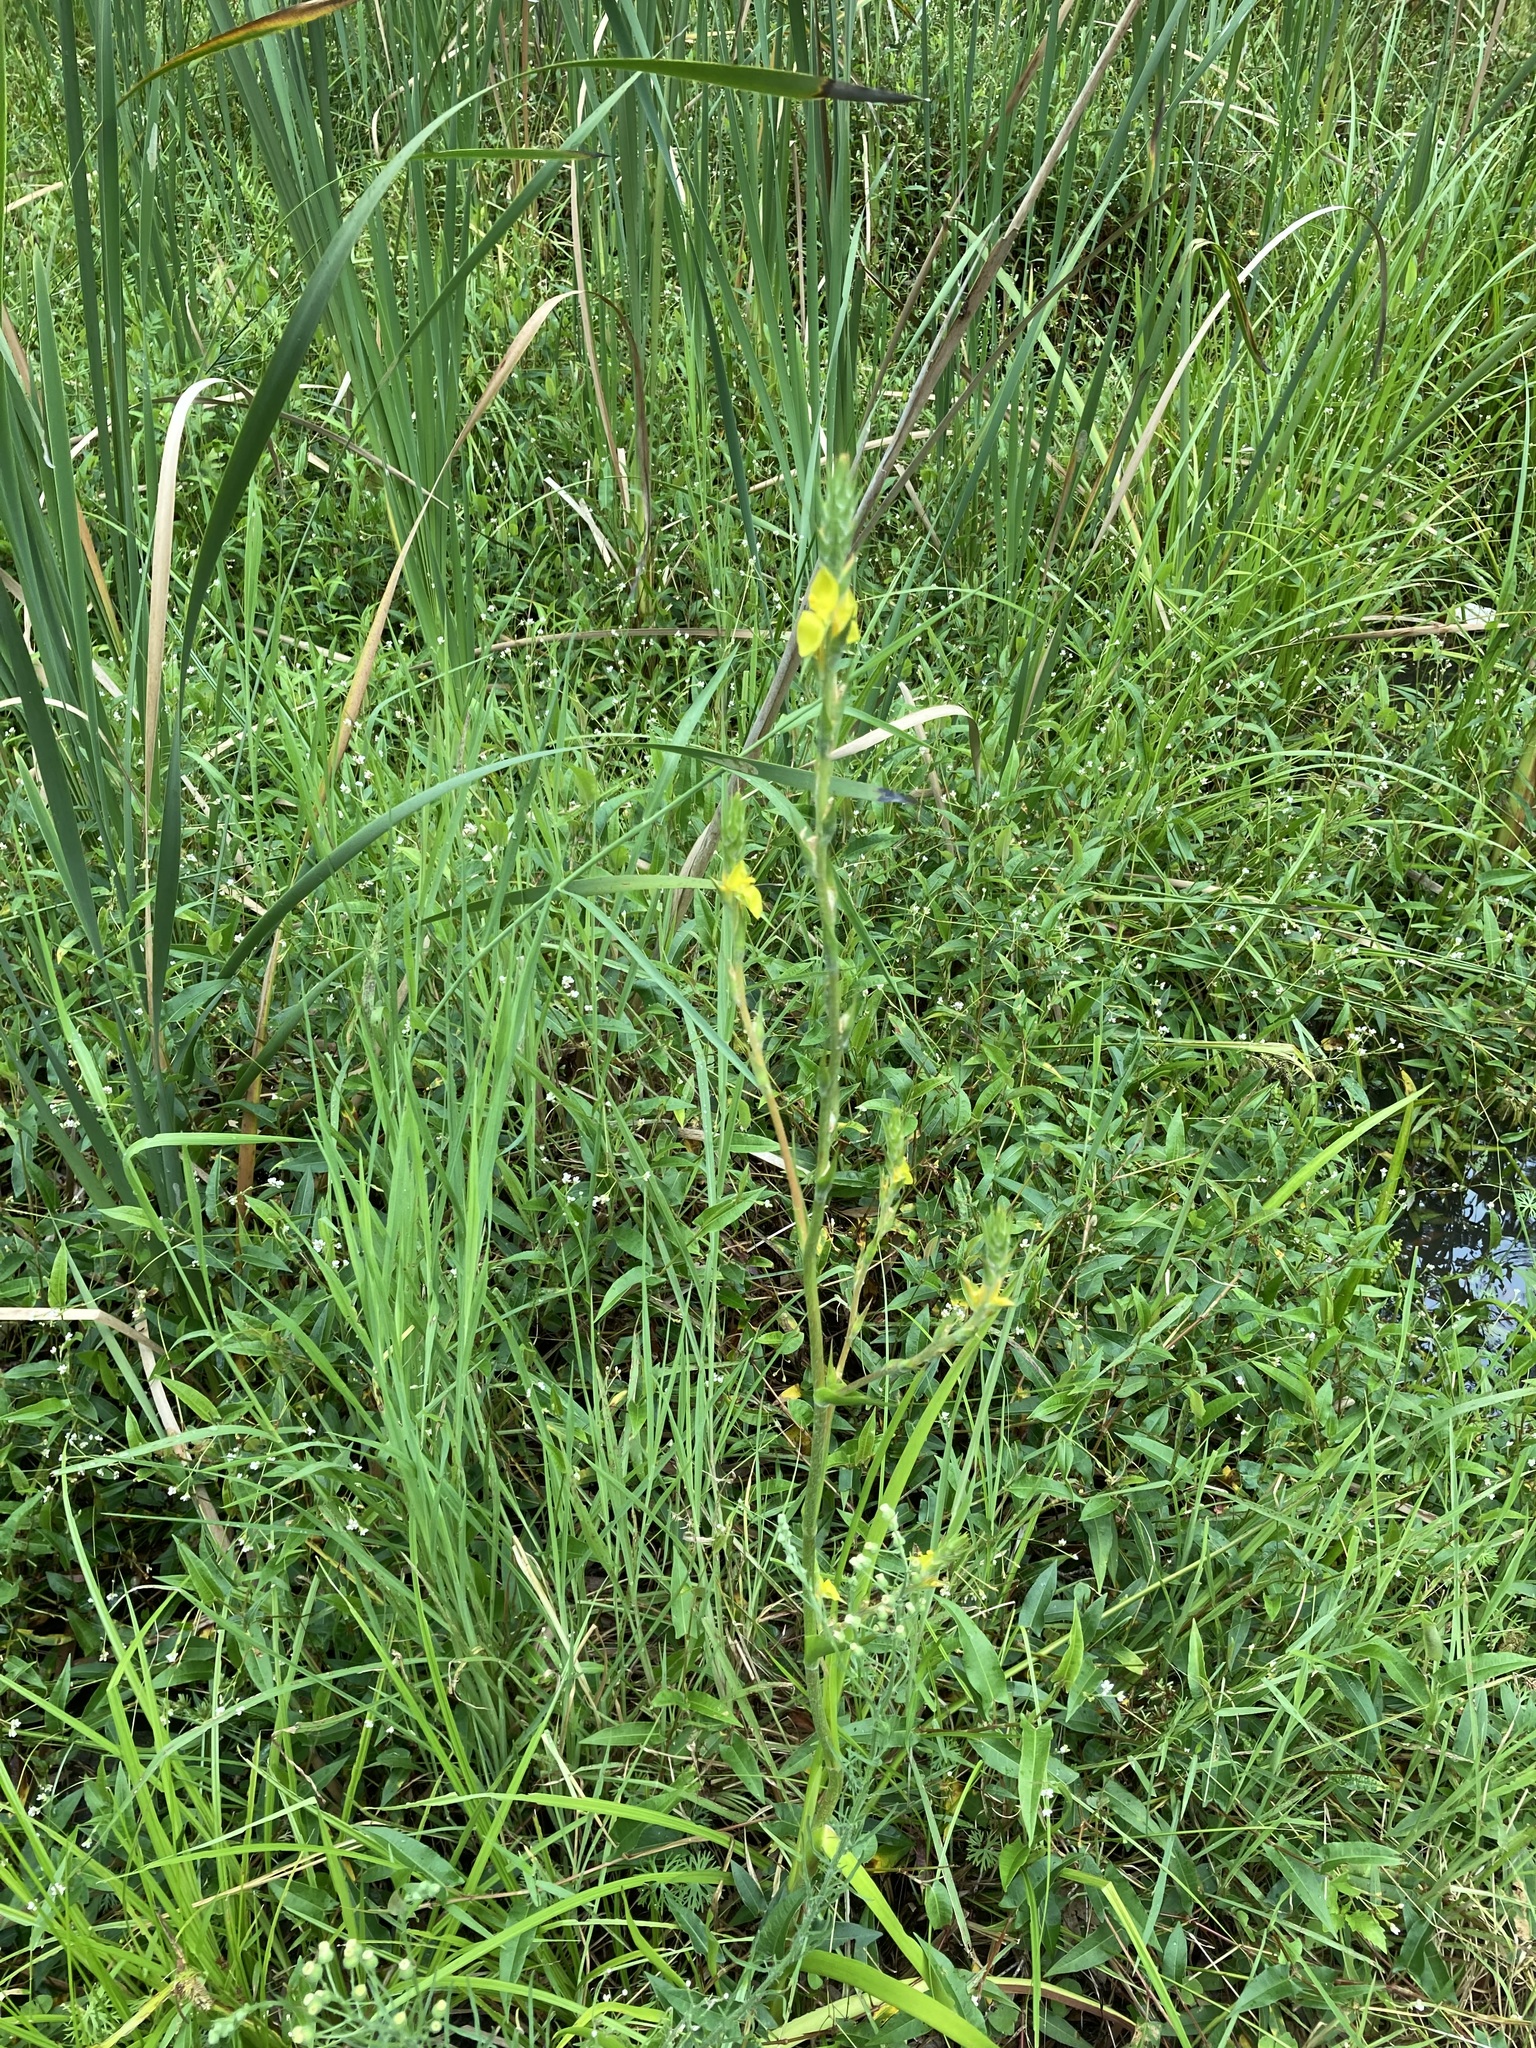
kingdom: Plantae
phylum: Tracheophyta
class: Liliopsida
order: Commelinales
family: Philydraceae
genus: Philydrum
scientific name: Philydrum lanuginosum
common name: Woolly frog's mouth
